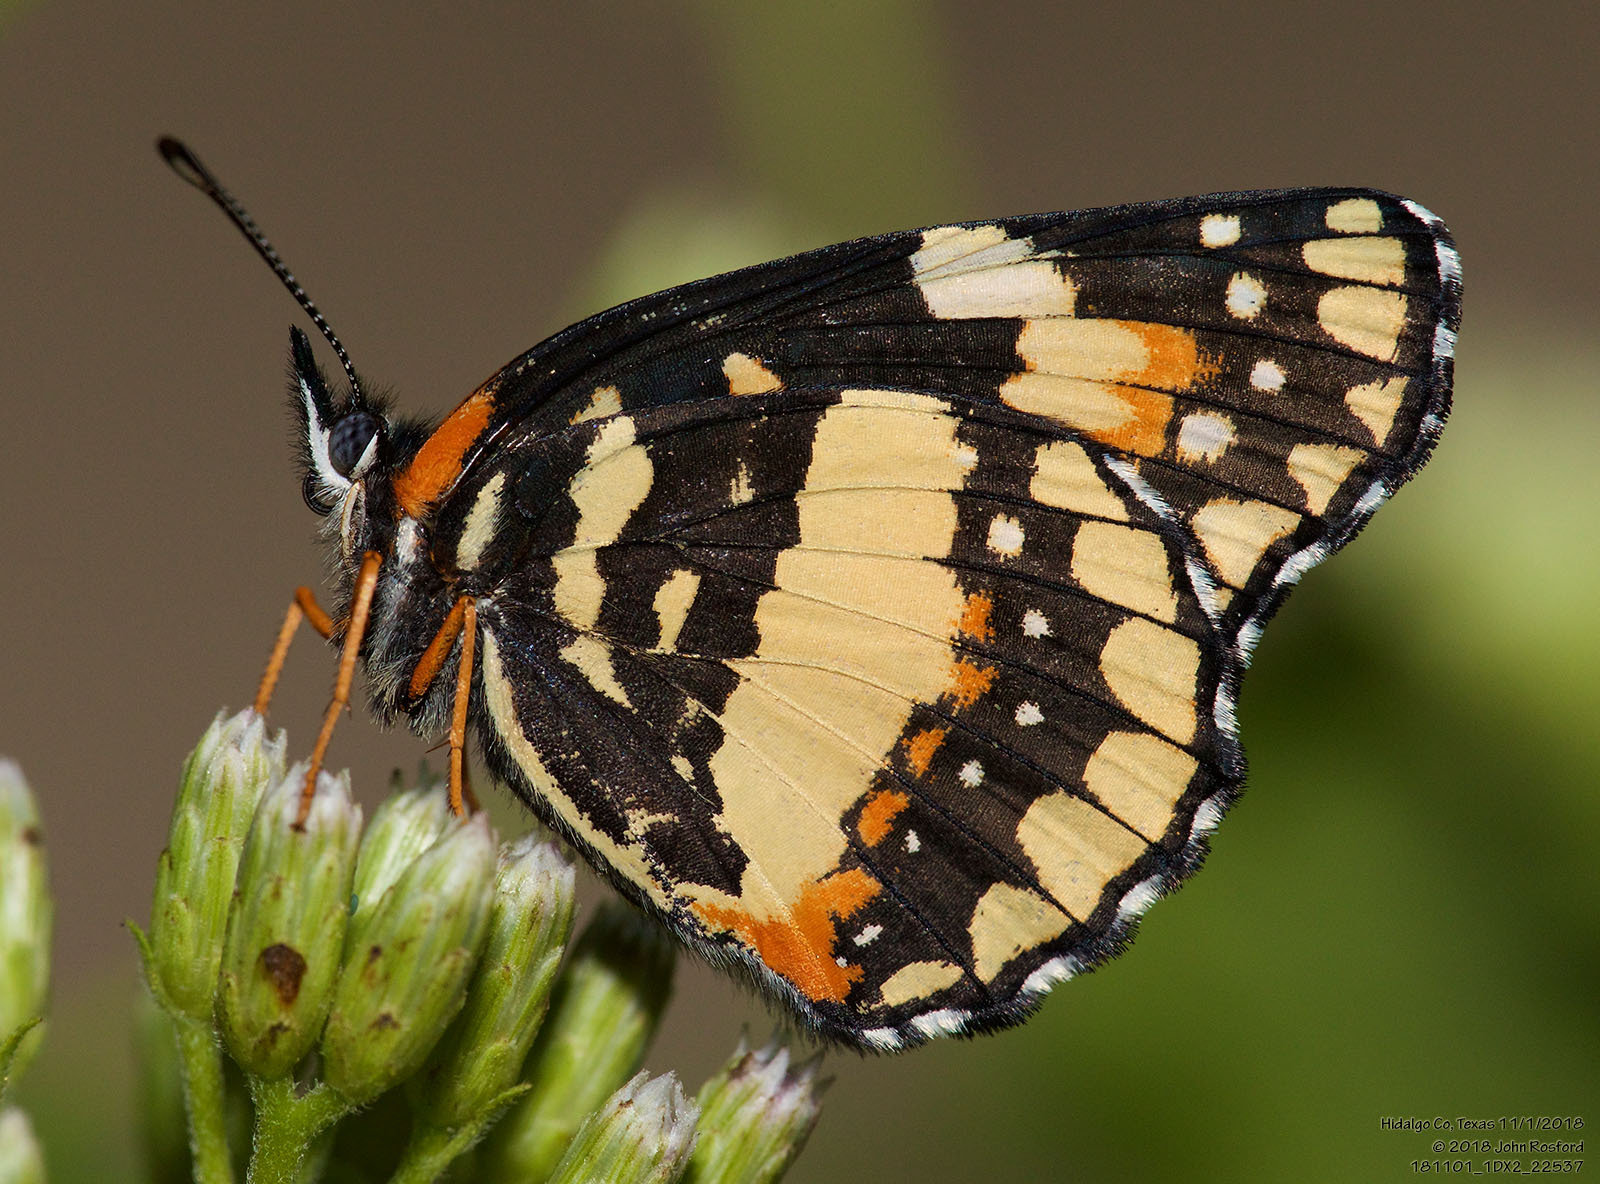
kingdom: Animalia
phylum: Arthropoda
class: Insecta
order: Lepidoptera
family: Nymphalidae
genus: Chlosyne
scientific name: Chlosyne lacinia
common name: Bordered patch
